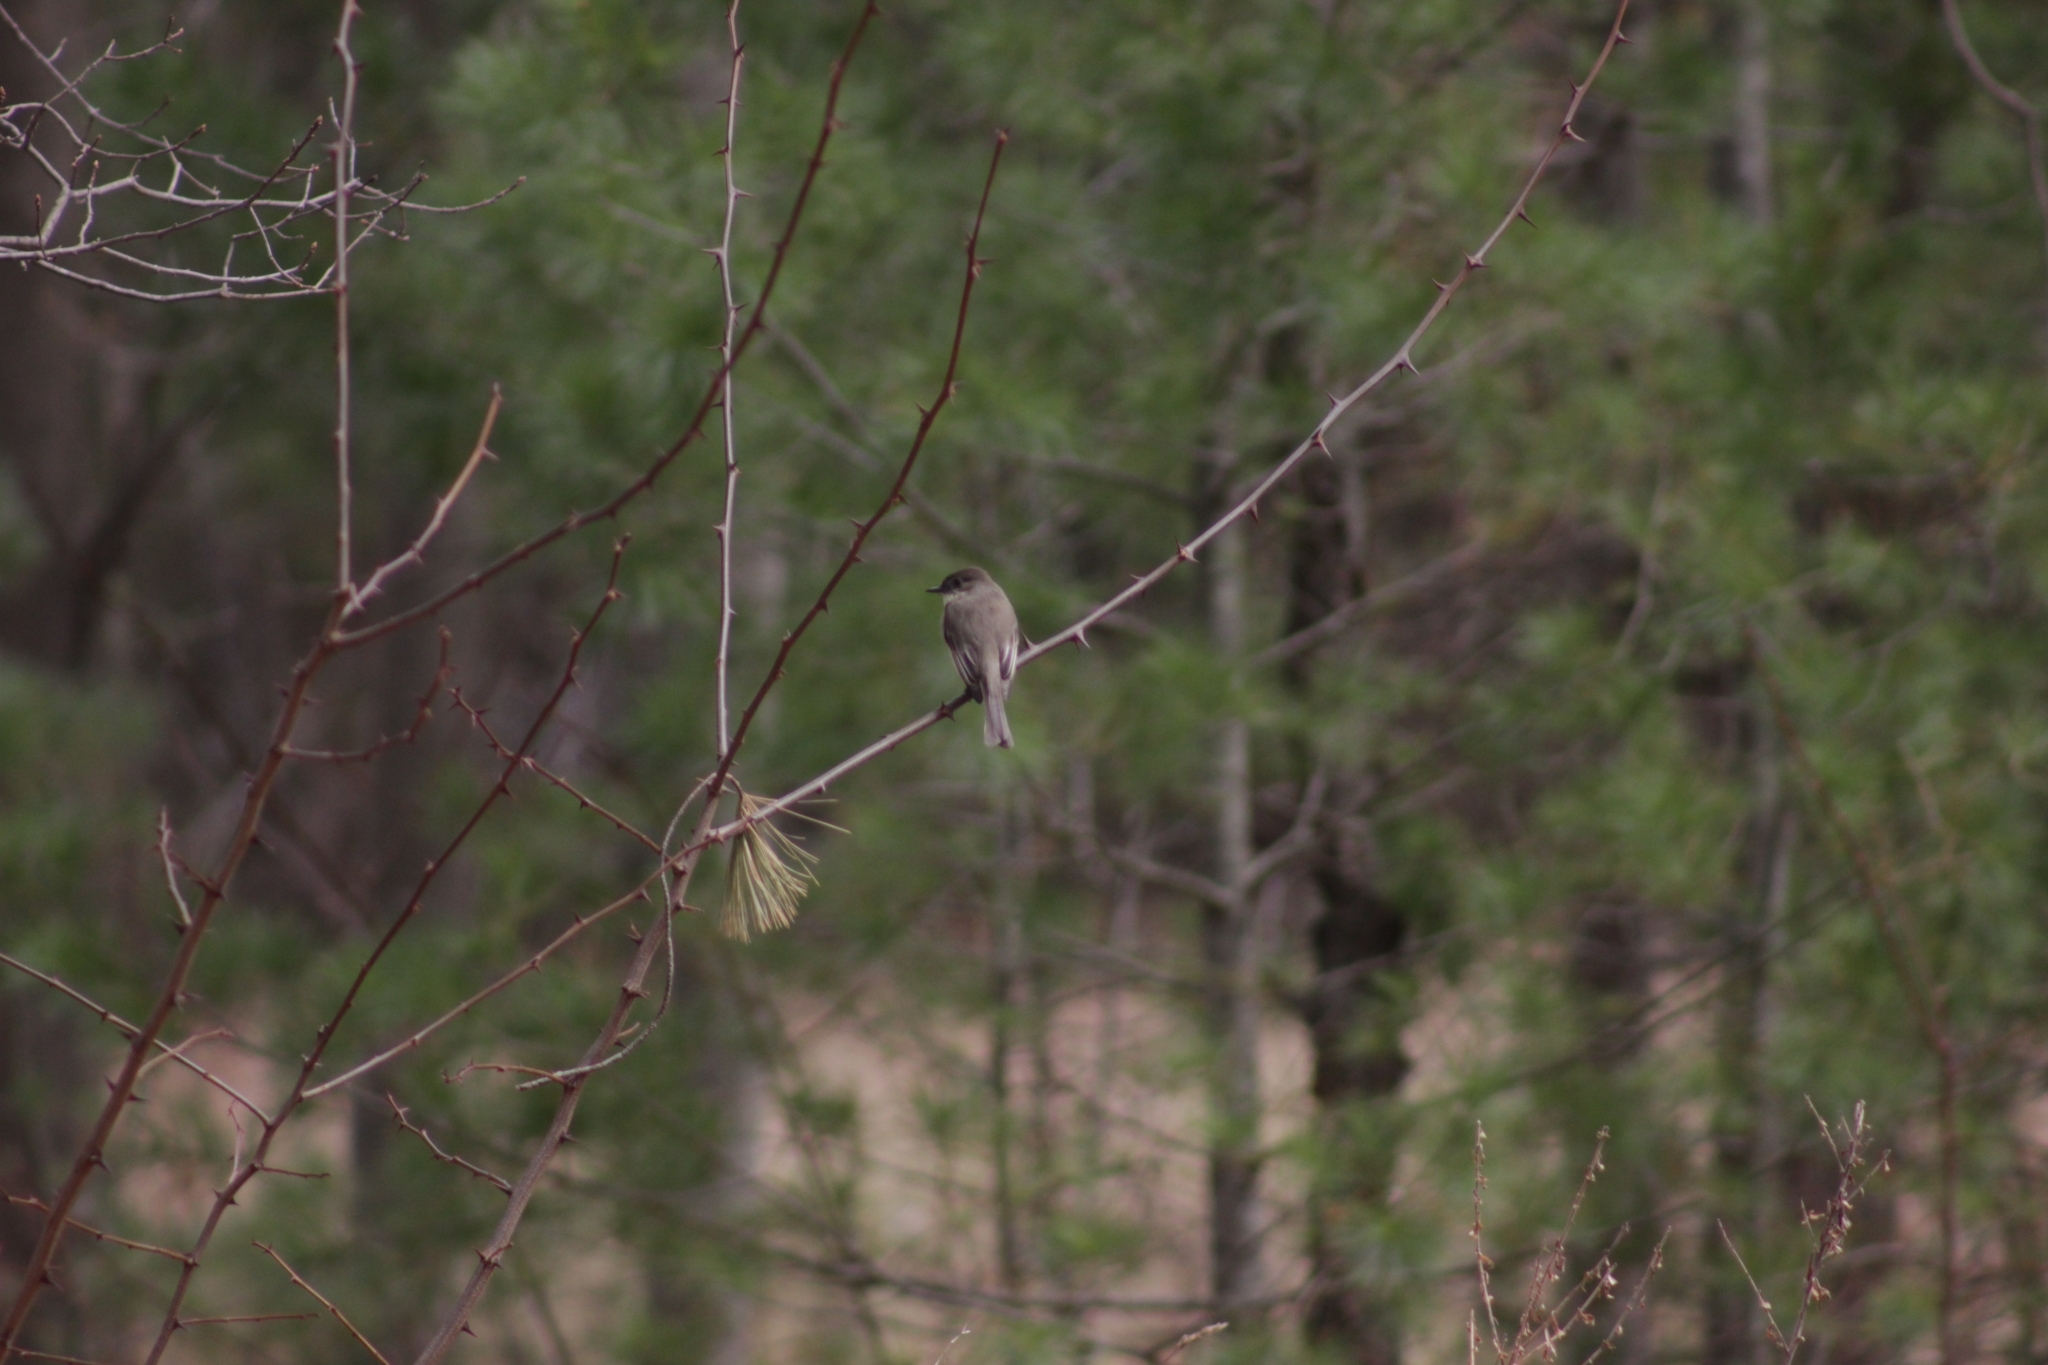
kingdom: Animalia
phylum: Chordata
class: Aves
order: Passeriformes
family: Tyrannidae
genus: Sayornis
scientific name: Sayornis phoebe
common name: Eastern phoebe
